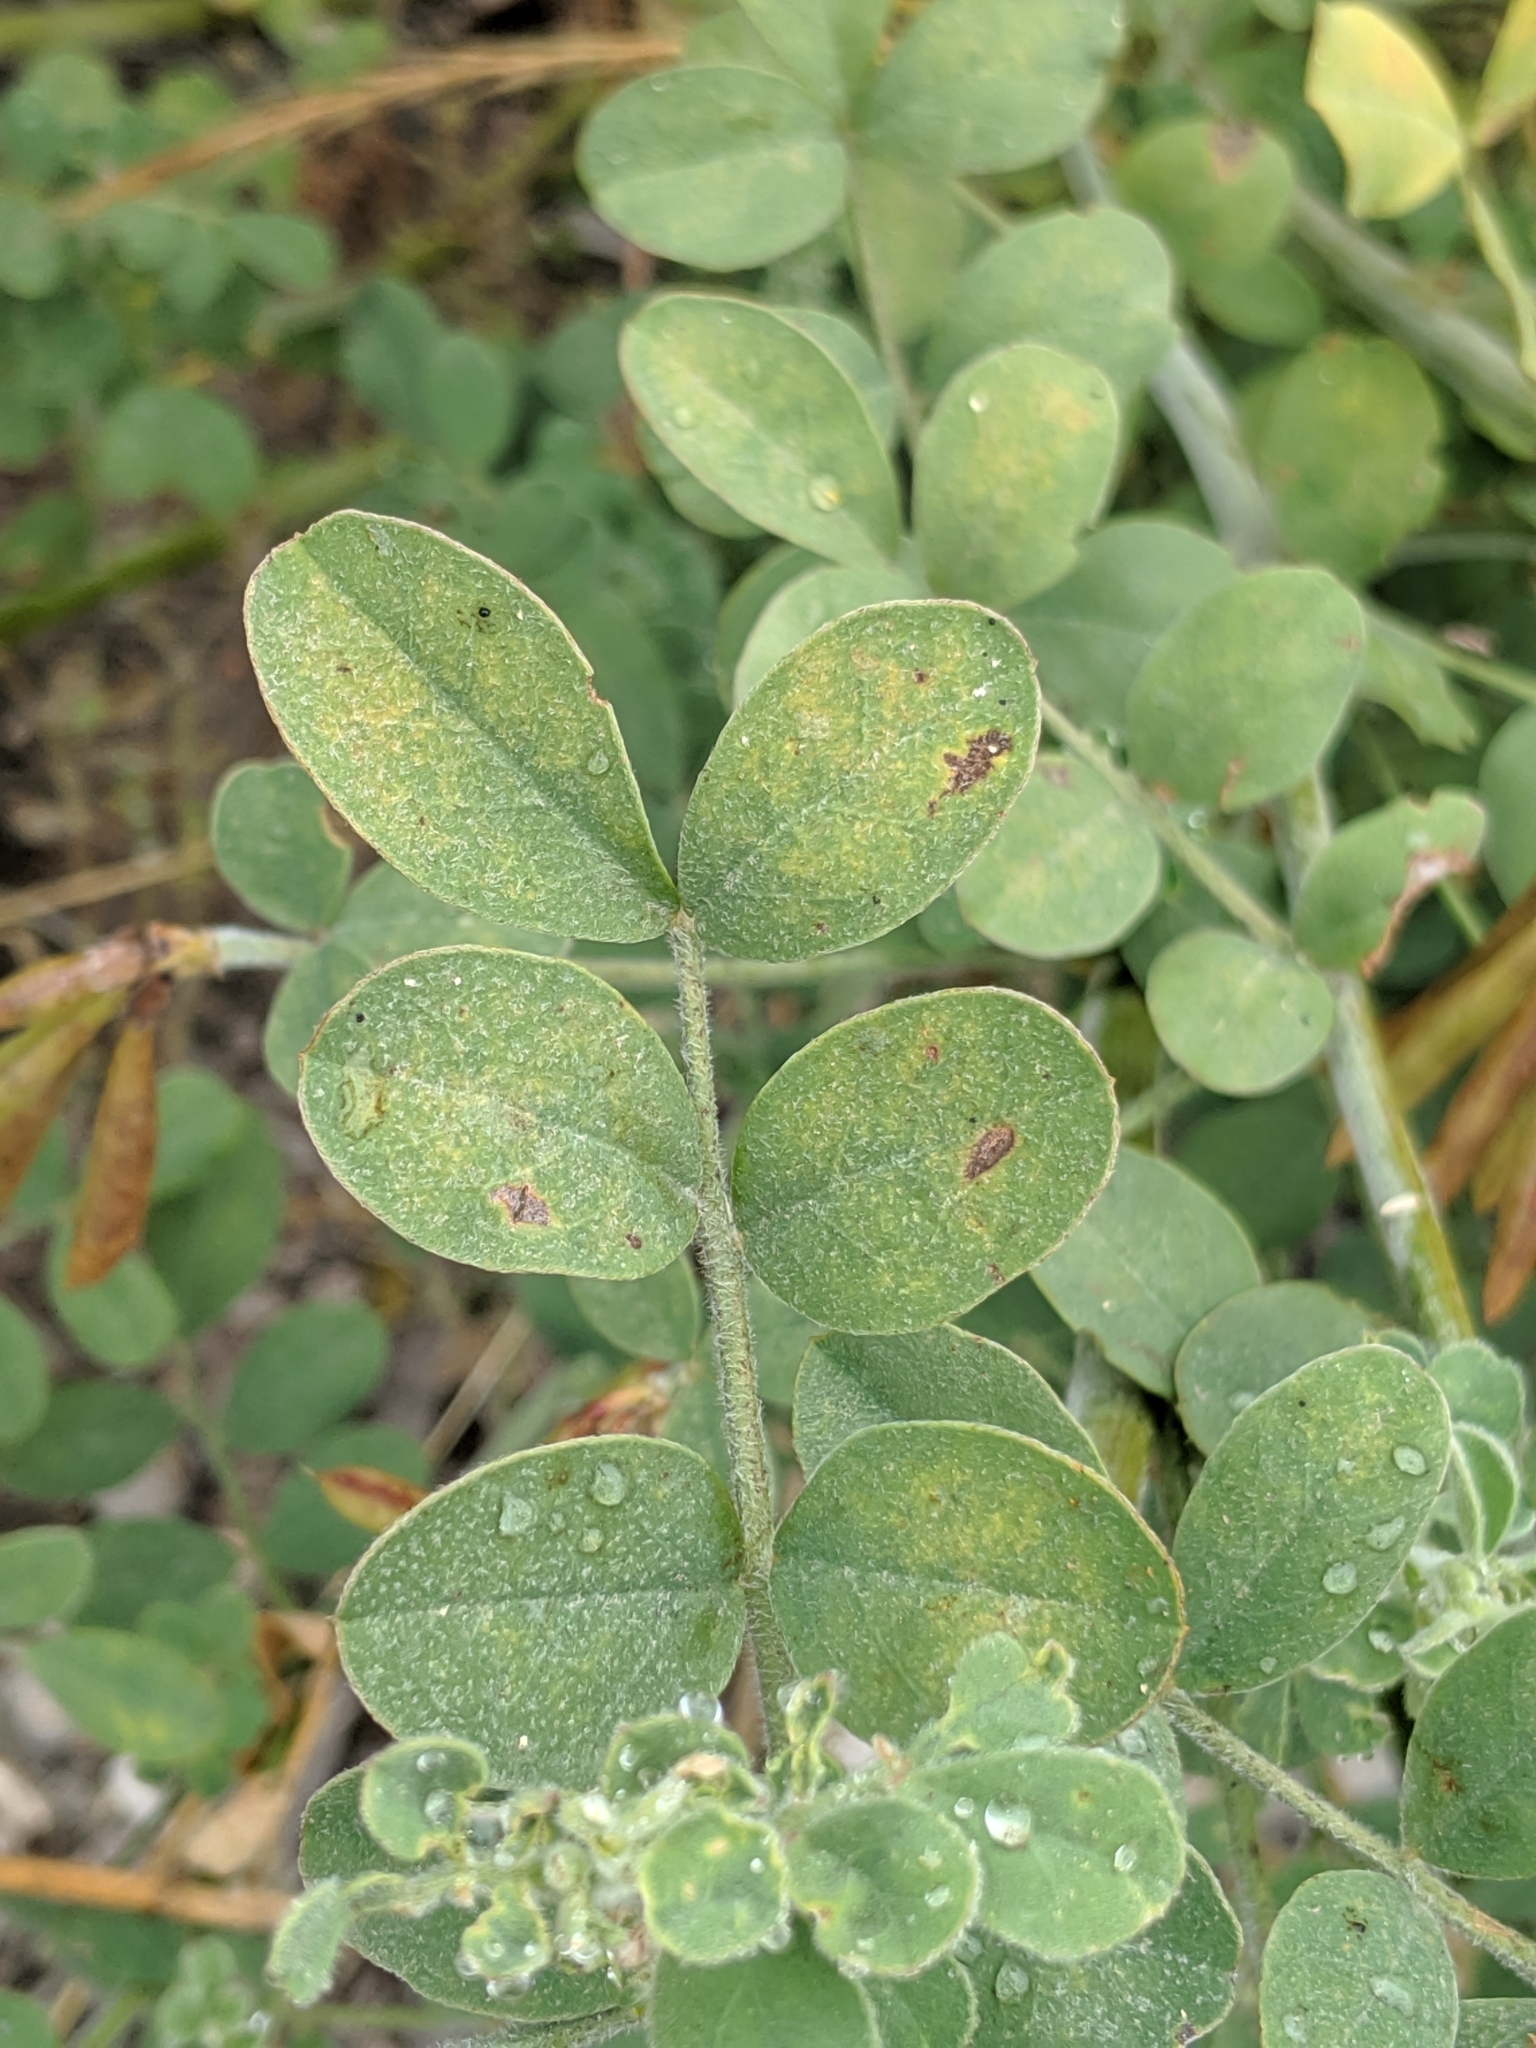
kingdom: Plantae
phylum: Tracheophyta
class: Magnoliopsida
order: Fabales
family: Fabaceae
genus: Hosackia
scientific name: Hosackia crassifolia
